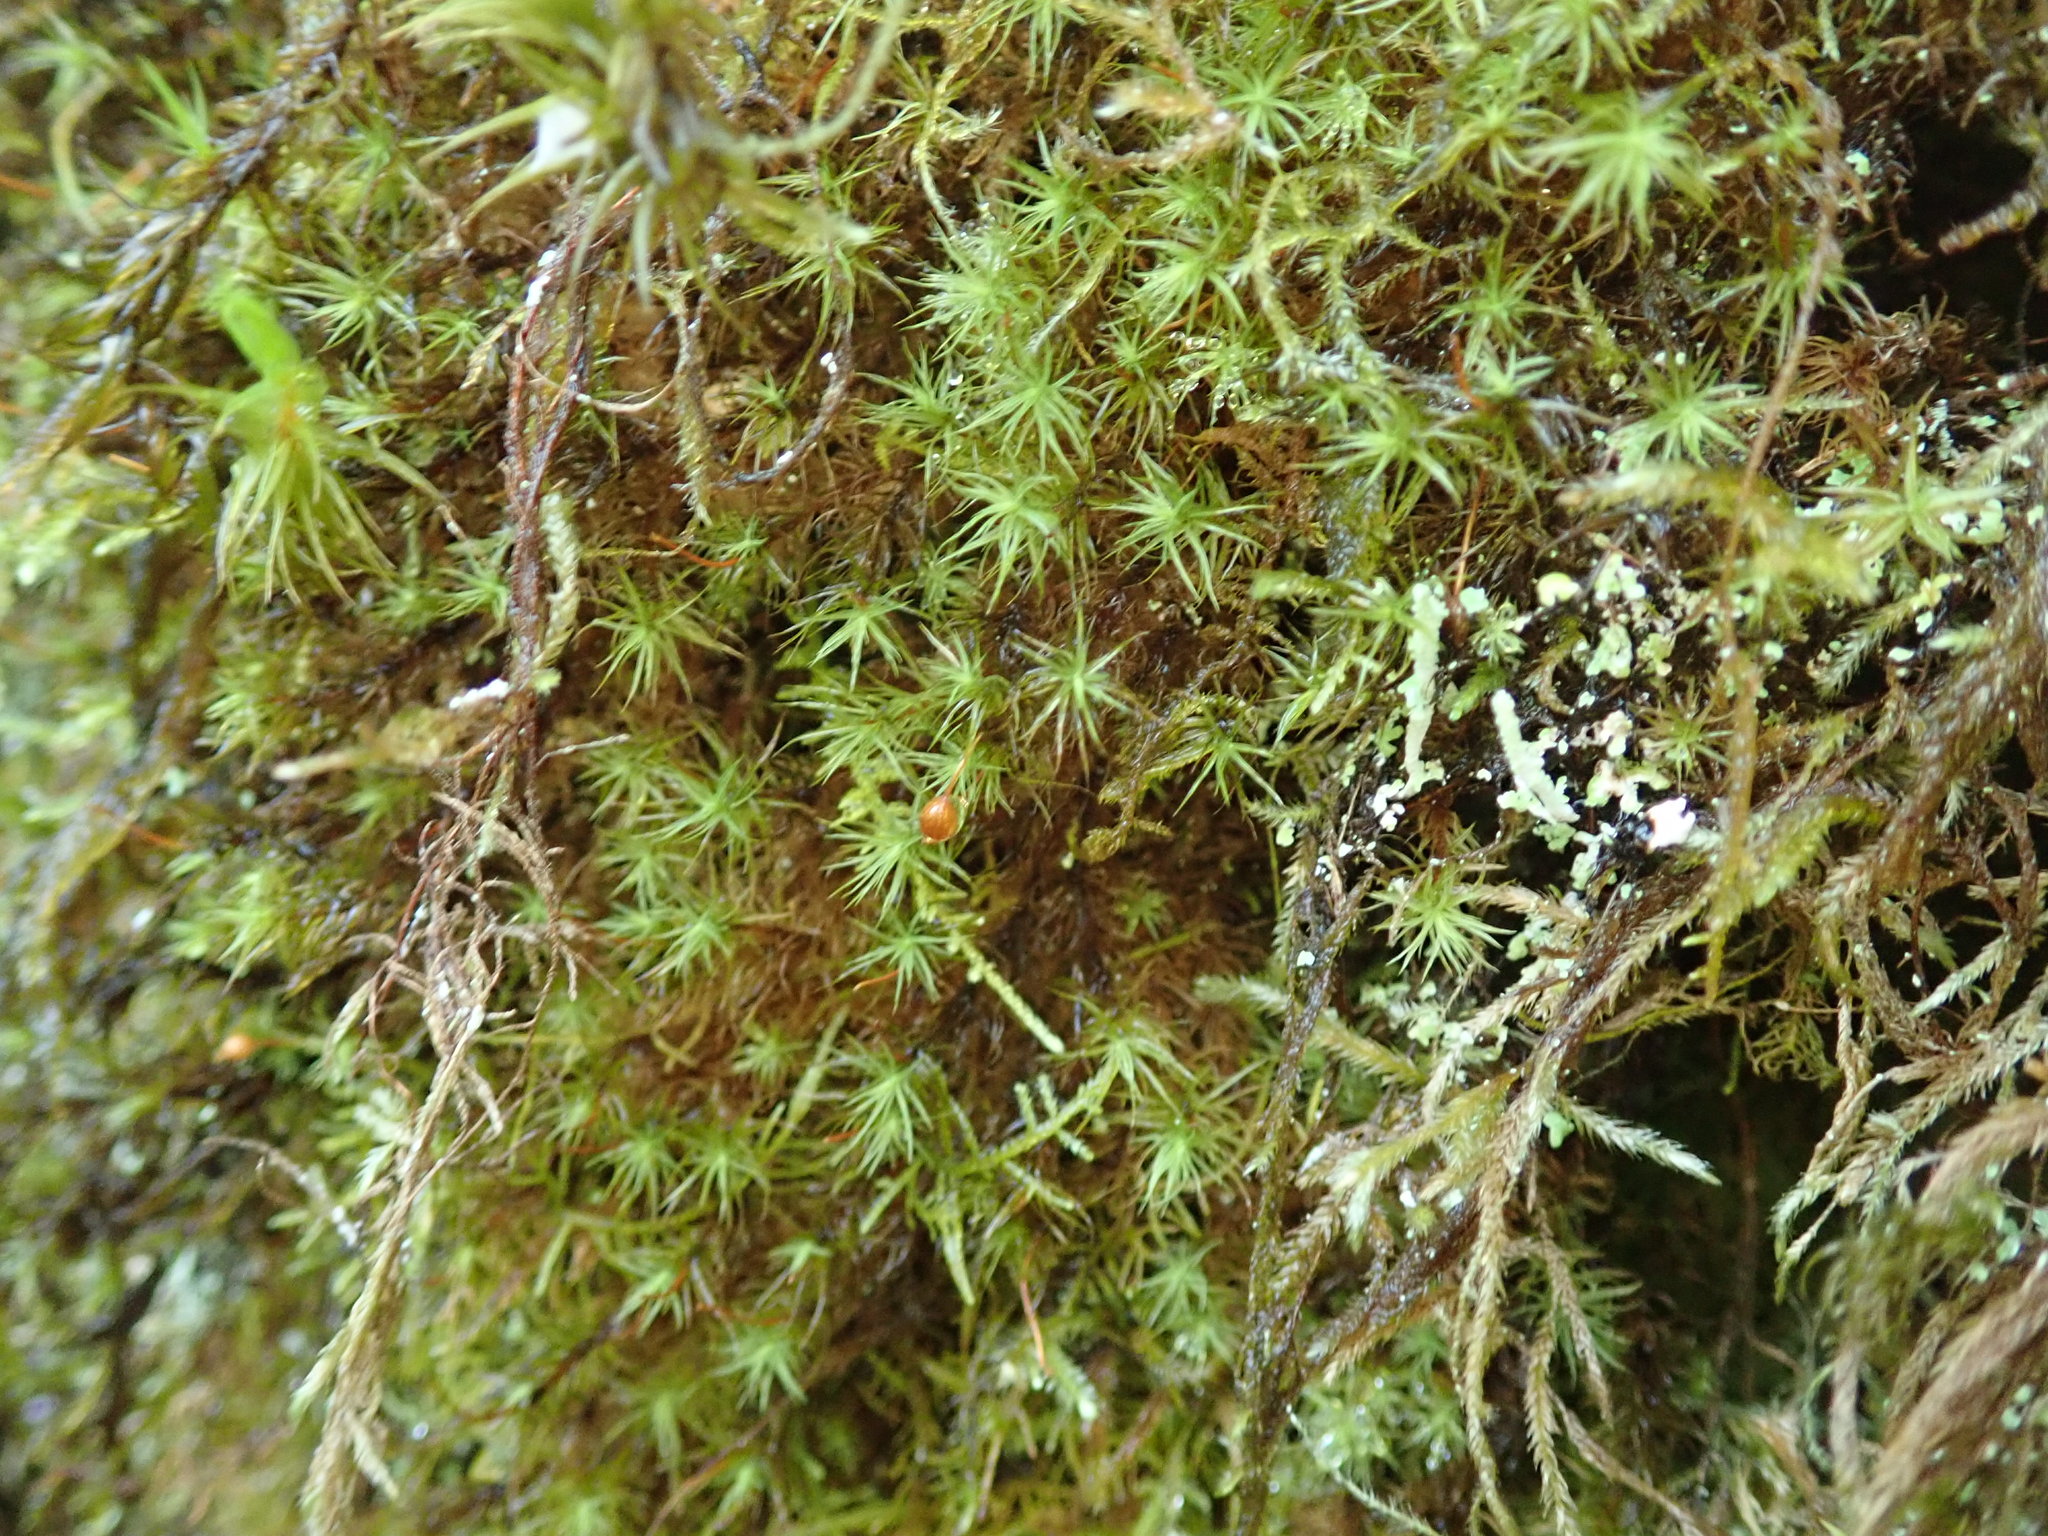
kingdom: Plantae
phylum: Bryophyta
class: Bryopsida
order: Bartramiales
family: Bartramiaceae
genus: Bartramia
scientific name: Bartramia ithyphylla
